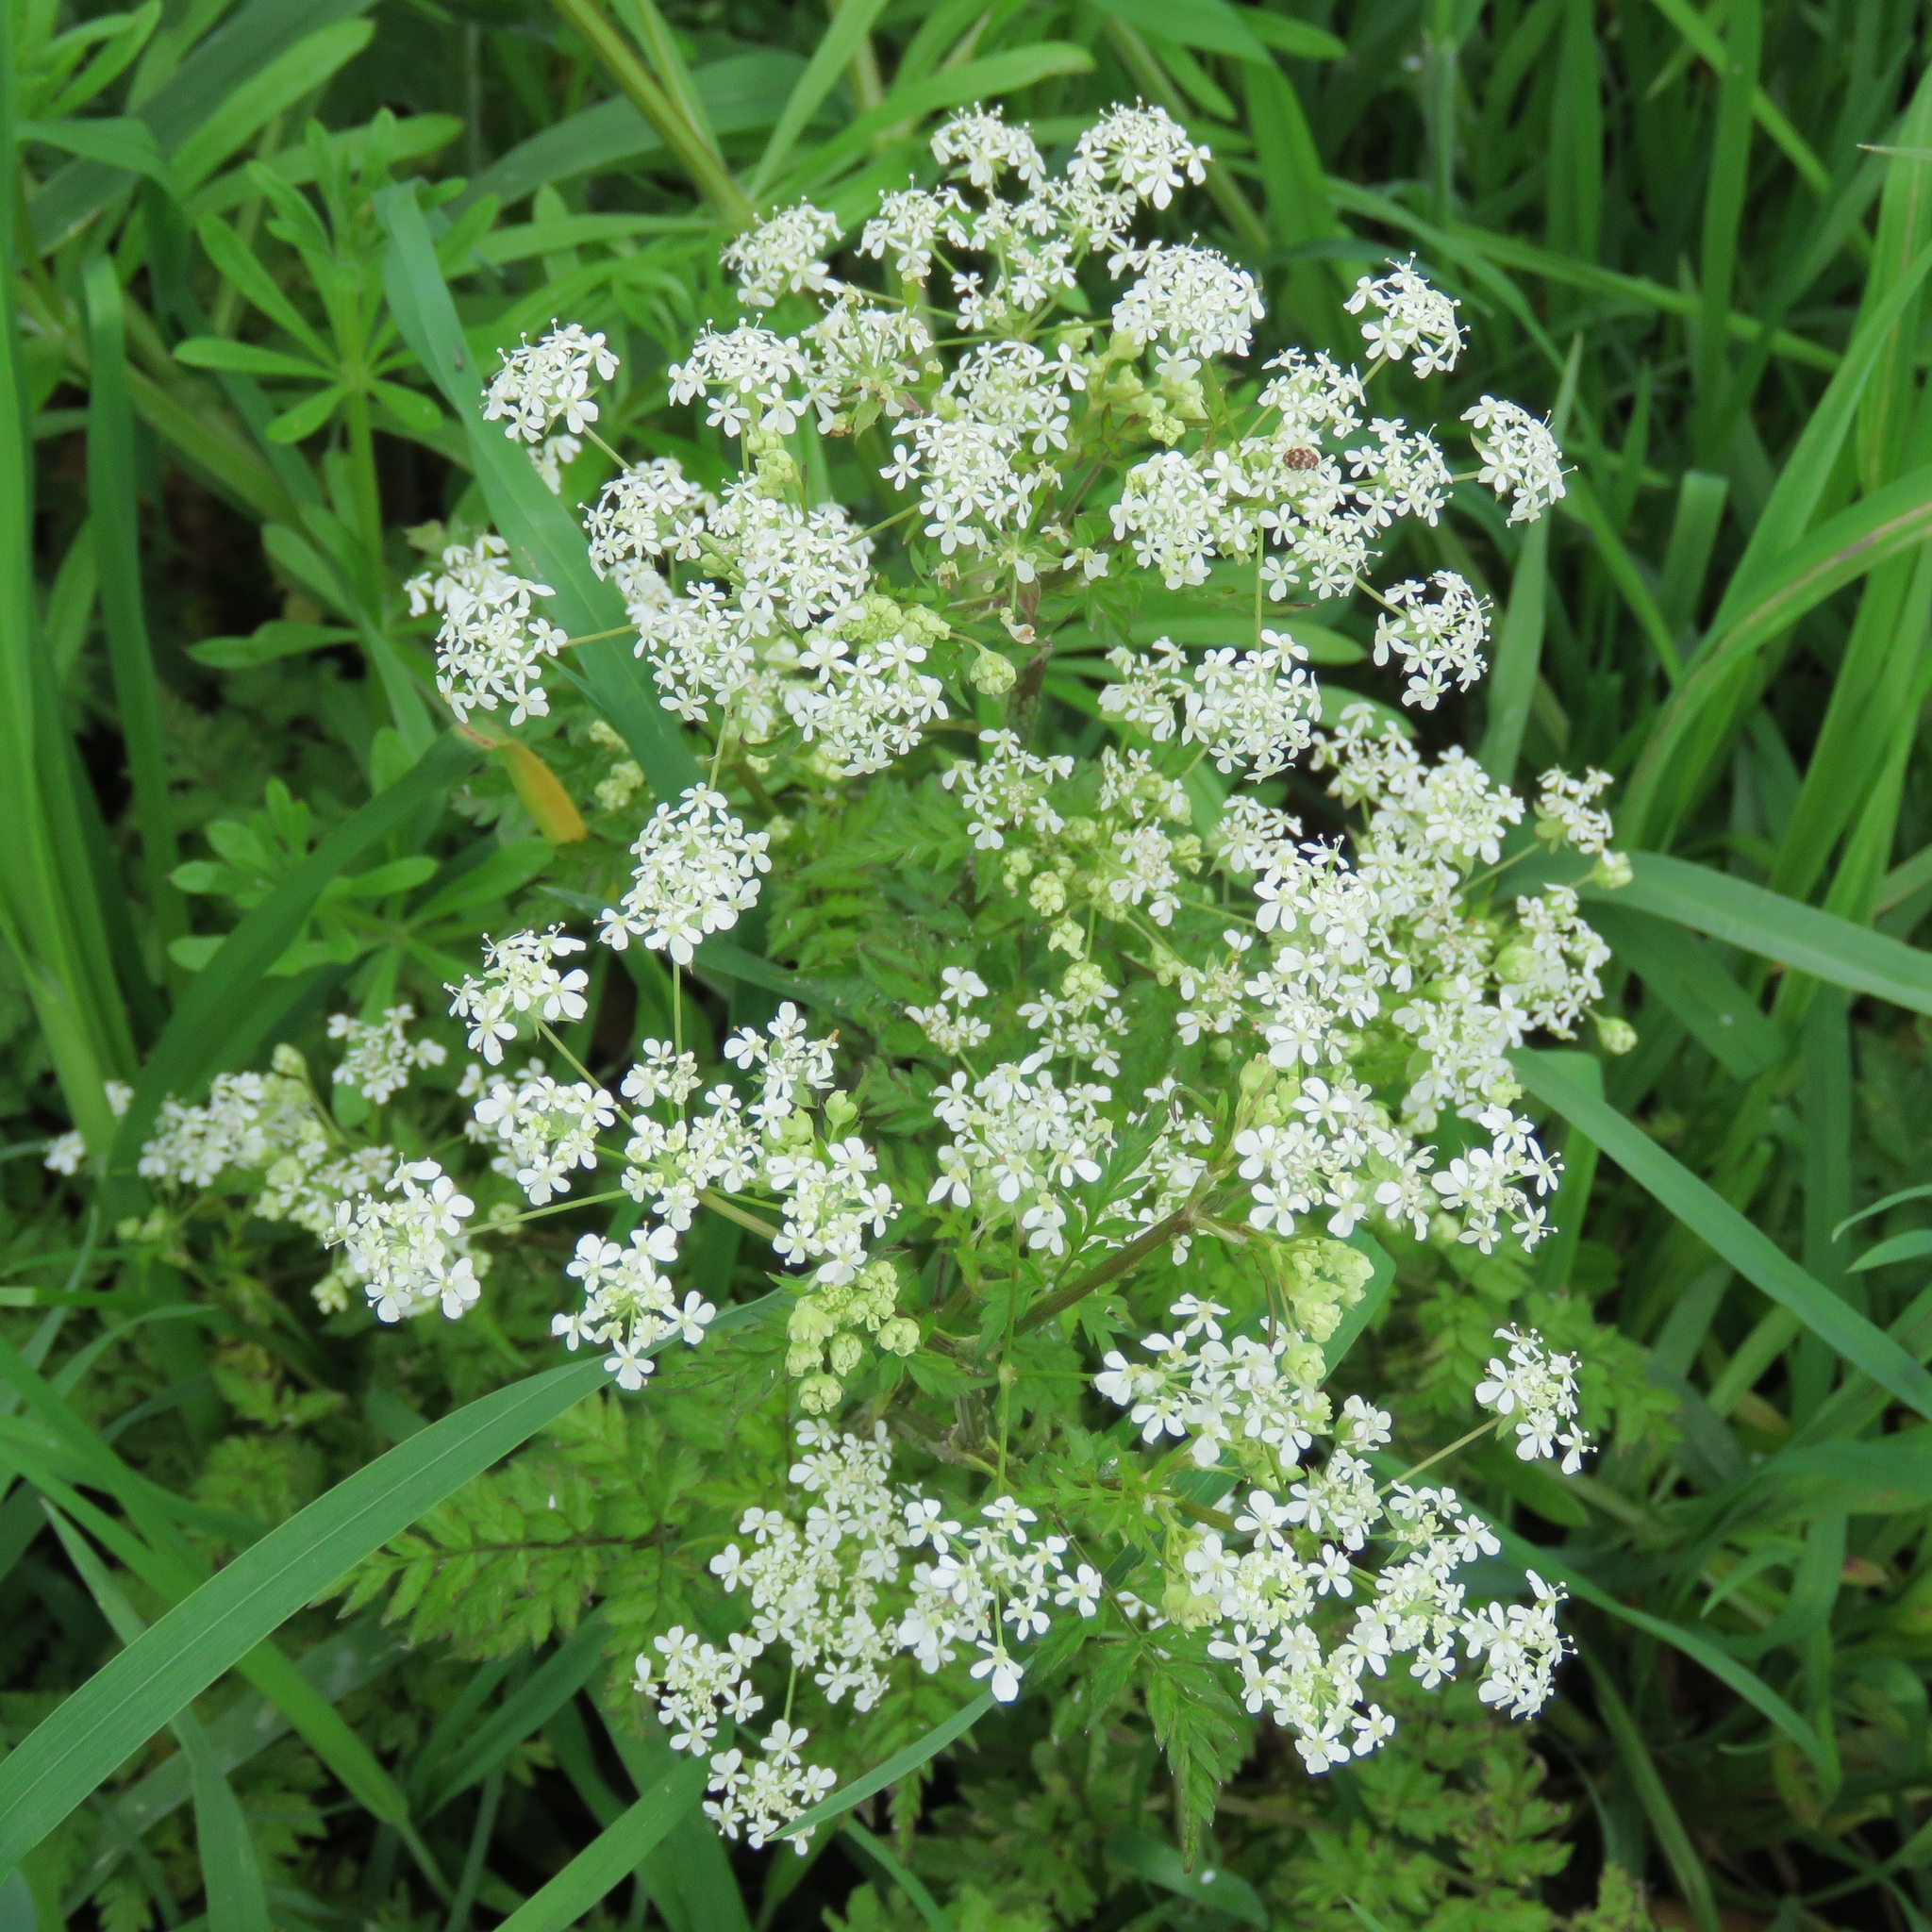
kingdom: Plantae
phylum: Tracheophyta
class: Magnoliopsida
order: Apiales
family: Apiaceae
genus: Anthriscus
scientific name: Anthriscus sylvestris
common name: Cow parsley
